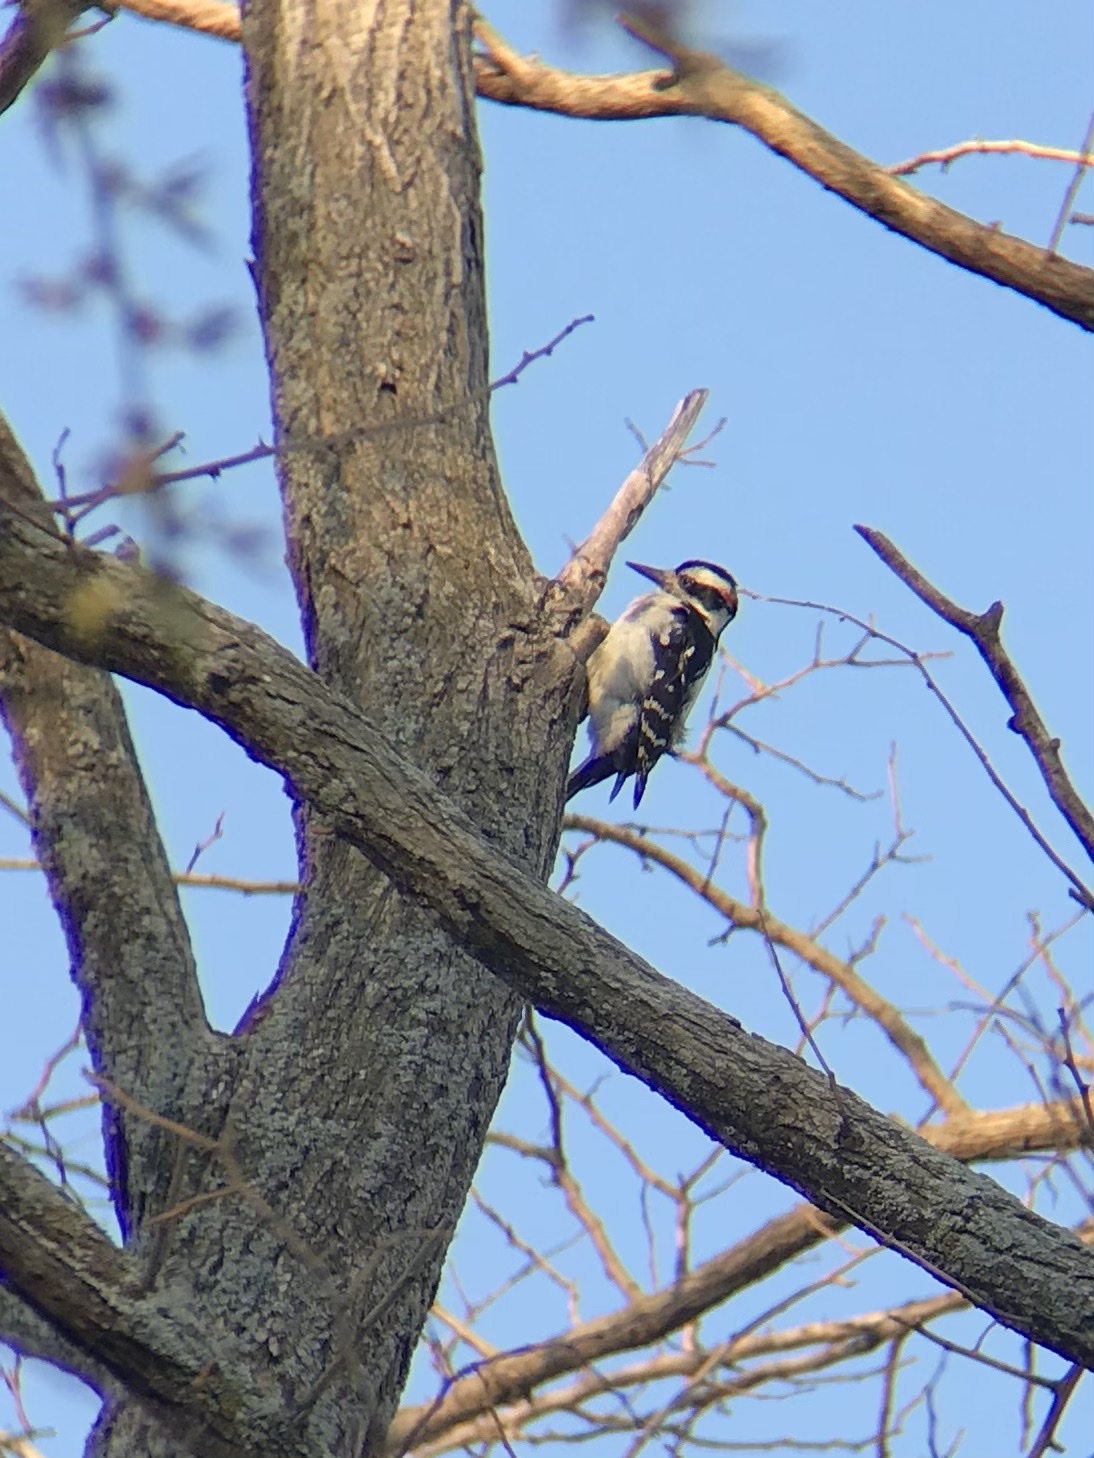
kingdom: Animalia
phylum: Chordata
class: Aves
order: Piciformes
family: Picidae
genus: Leuconotopicus
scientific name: Leuconotopicus villosus
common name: Hairy woodpecker
